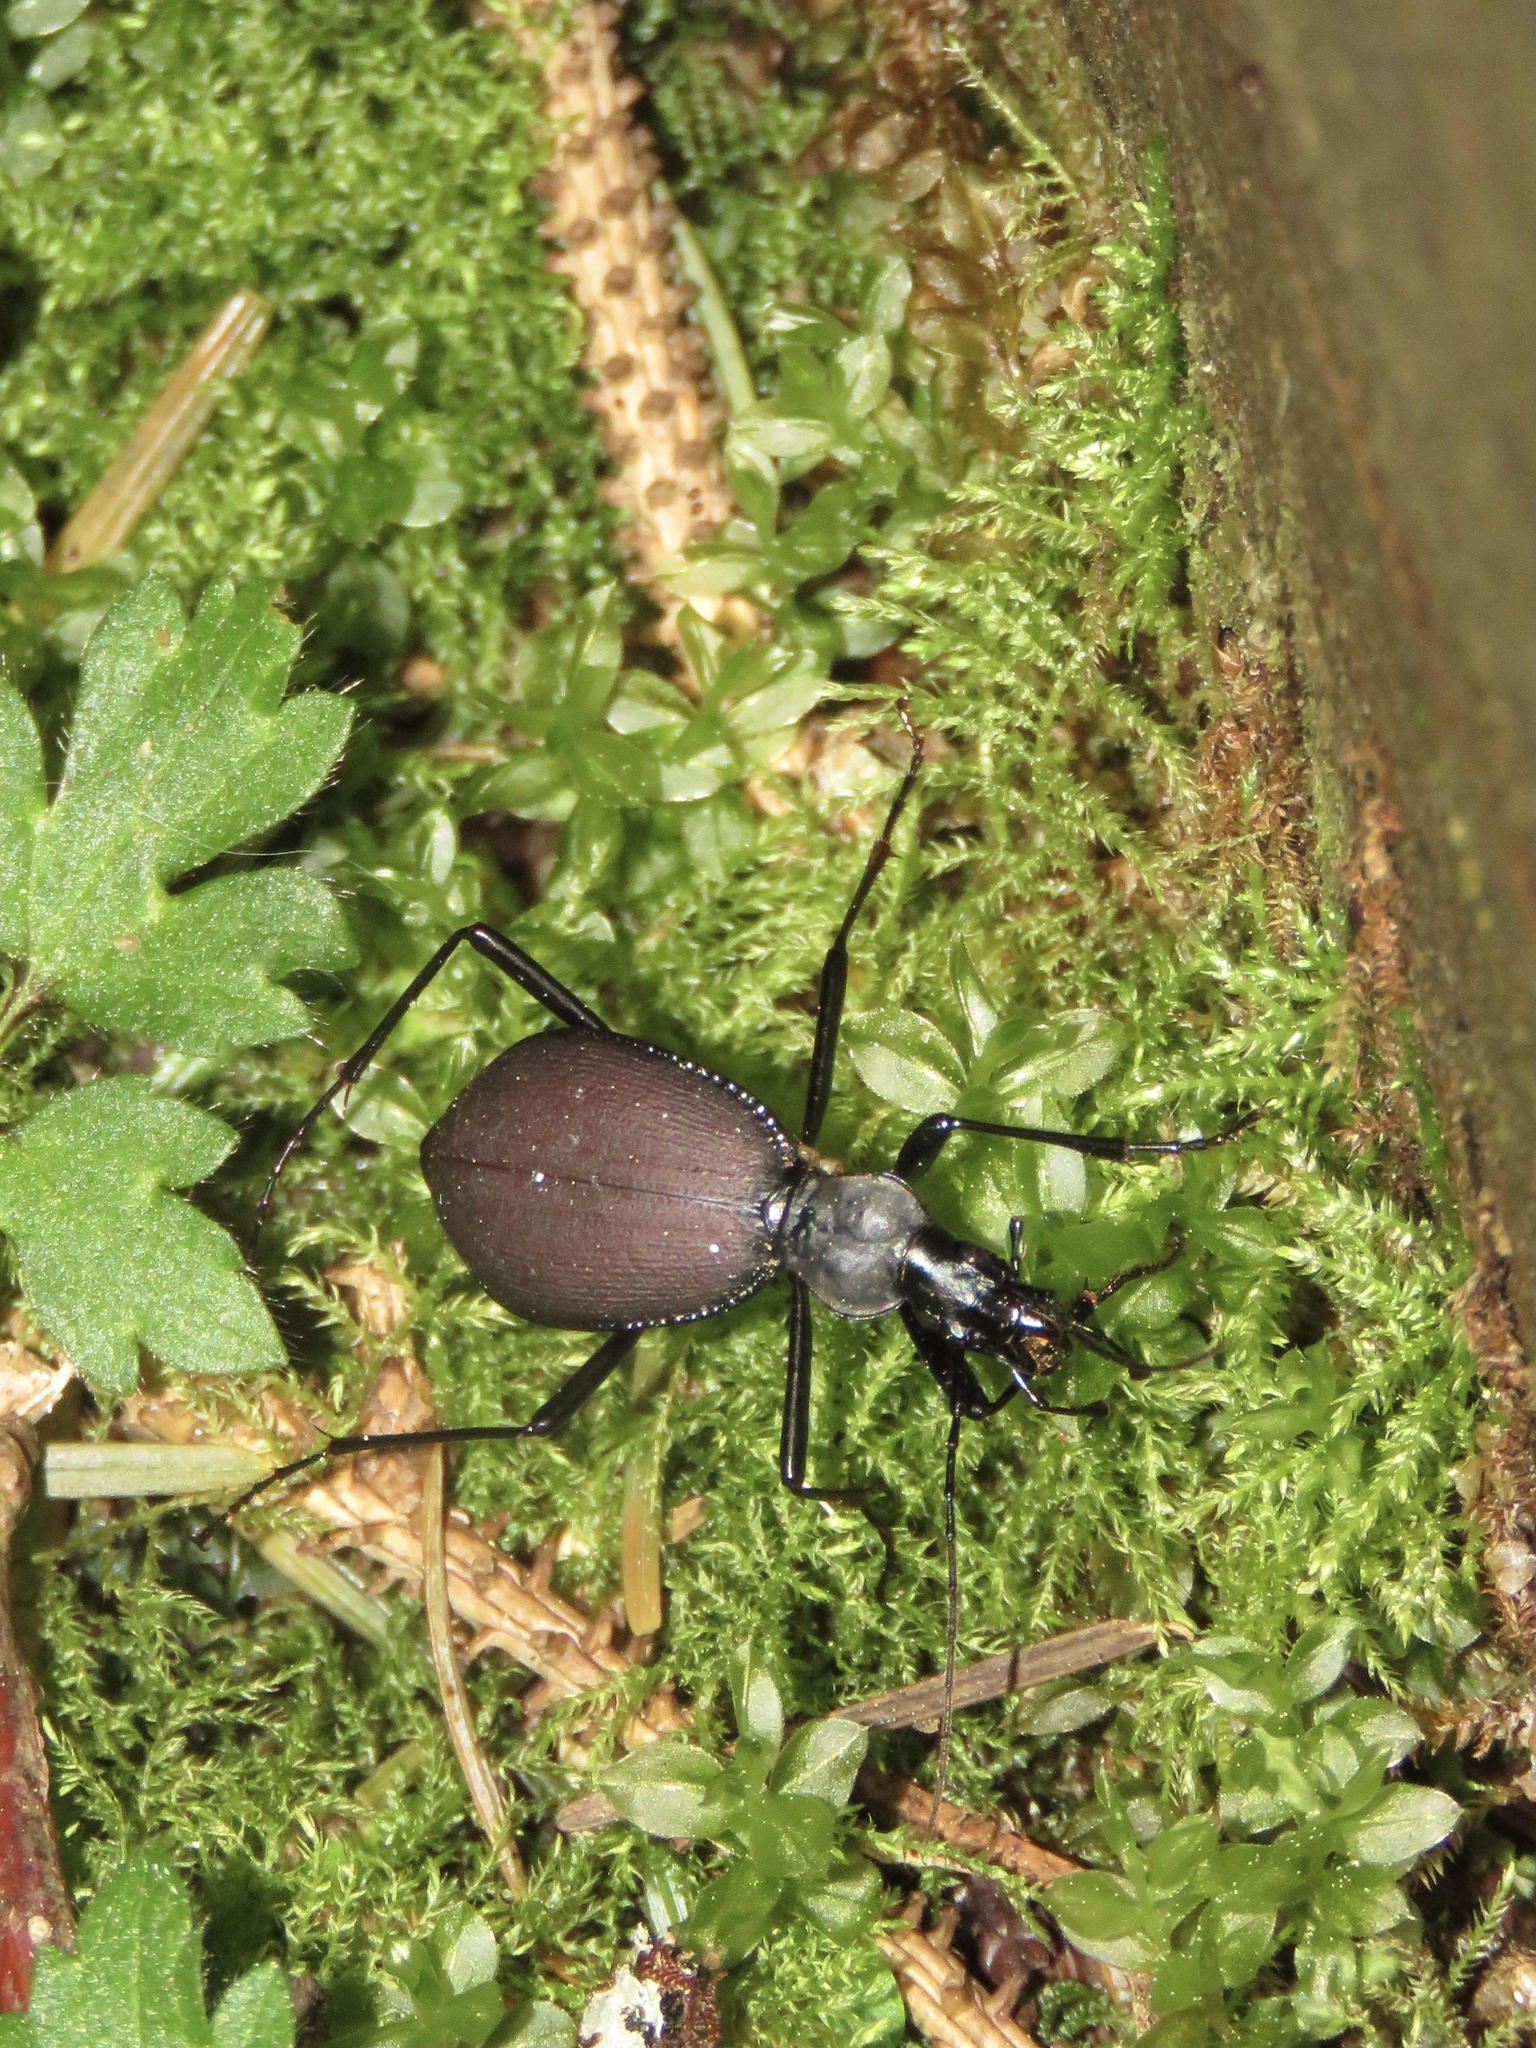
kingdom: Animalia
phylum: Arthropoda
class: Insecta
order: Coleoptera
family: Carabidae
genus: Scaphinotus
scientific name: Scaphinotus angusticollis
